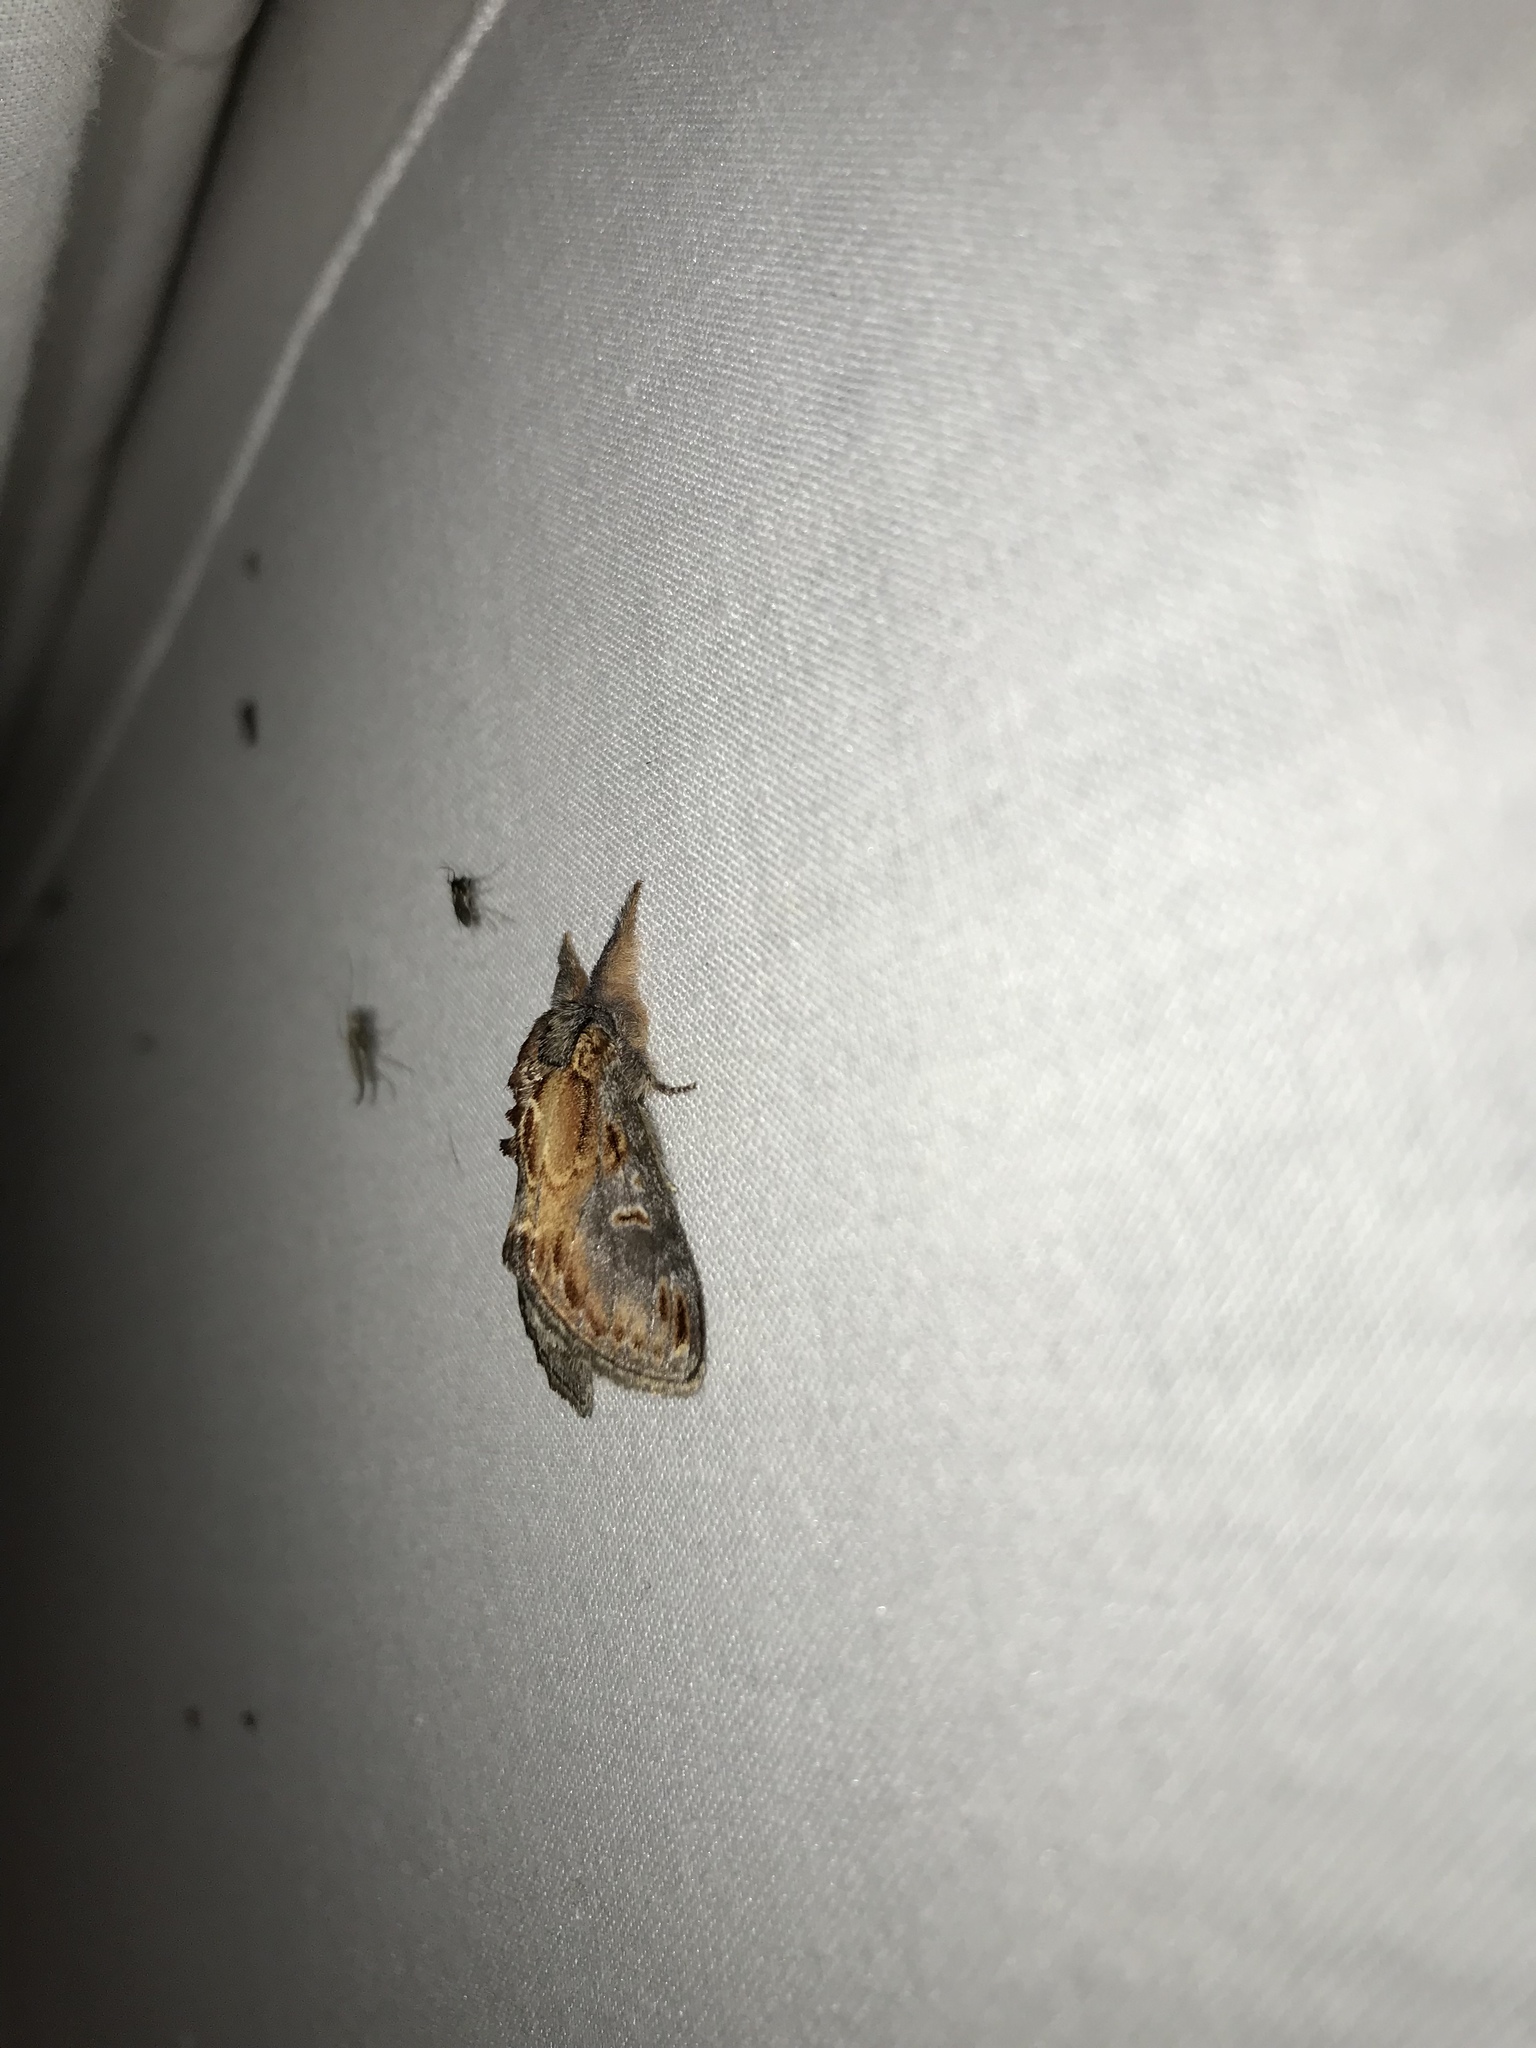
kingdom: Animalia
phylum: Arthropoda
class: Insecta
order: Lepidoptera
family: Notodontidae
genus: Notodonta
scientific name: Notodonta scitipennis
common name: Finned-willow prominent moth
